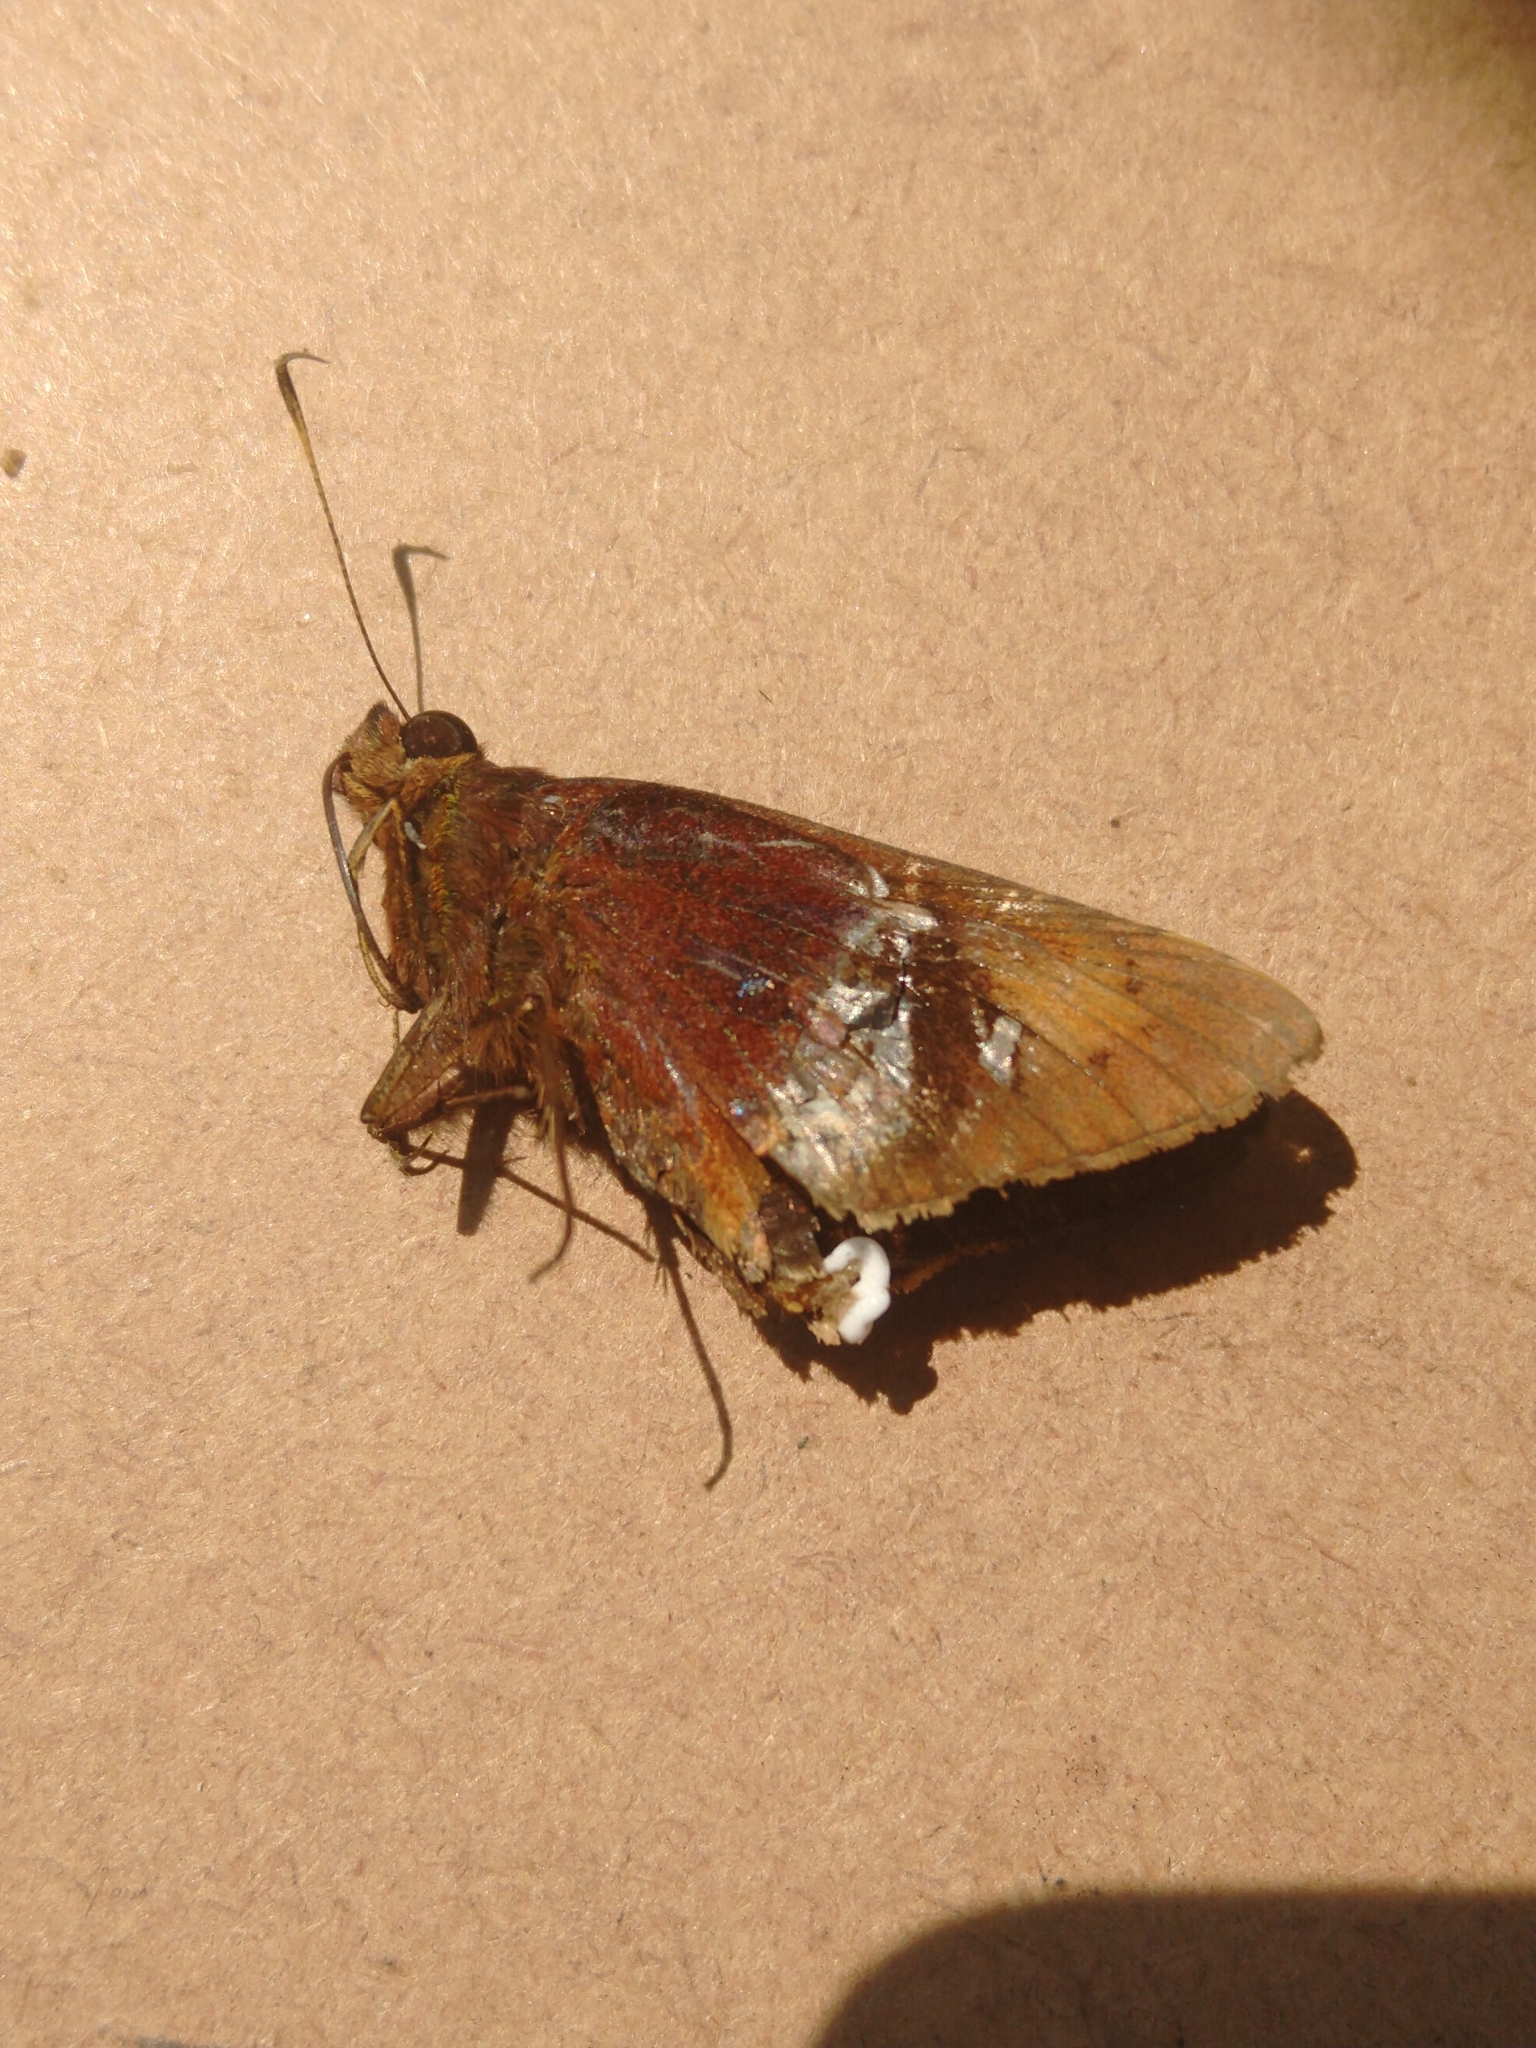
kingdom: Animalia
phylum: Arthropoda
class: Insecta
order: Lepidoptera
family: Hesperiidae
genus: Tisias
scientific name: Tisias quadrata
